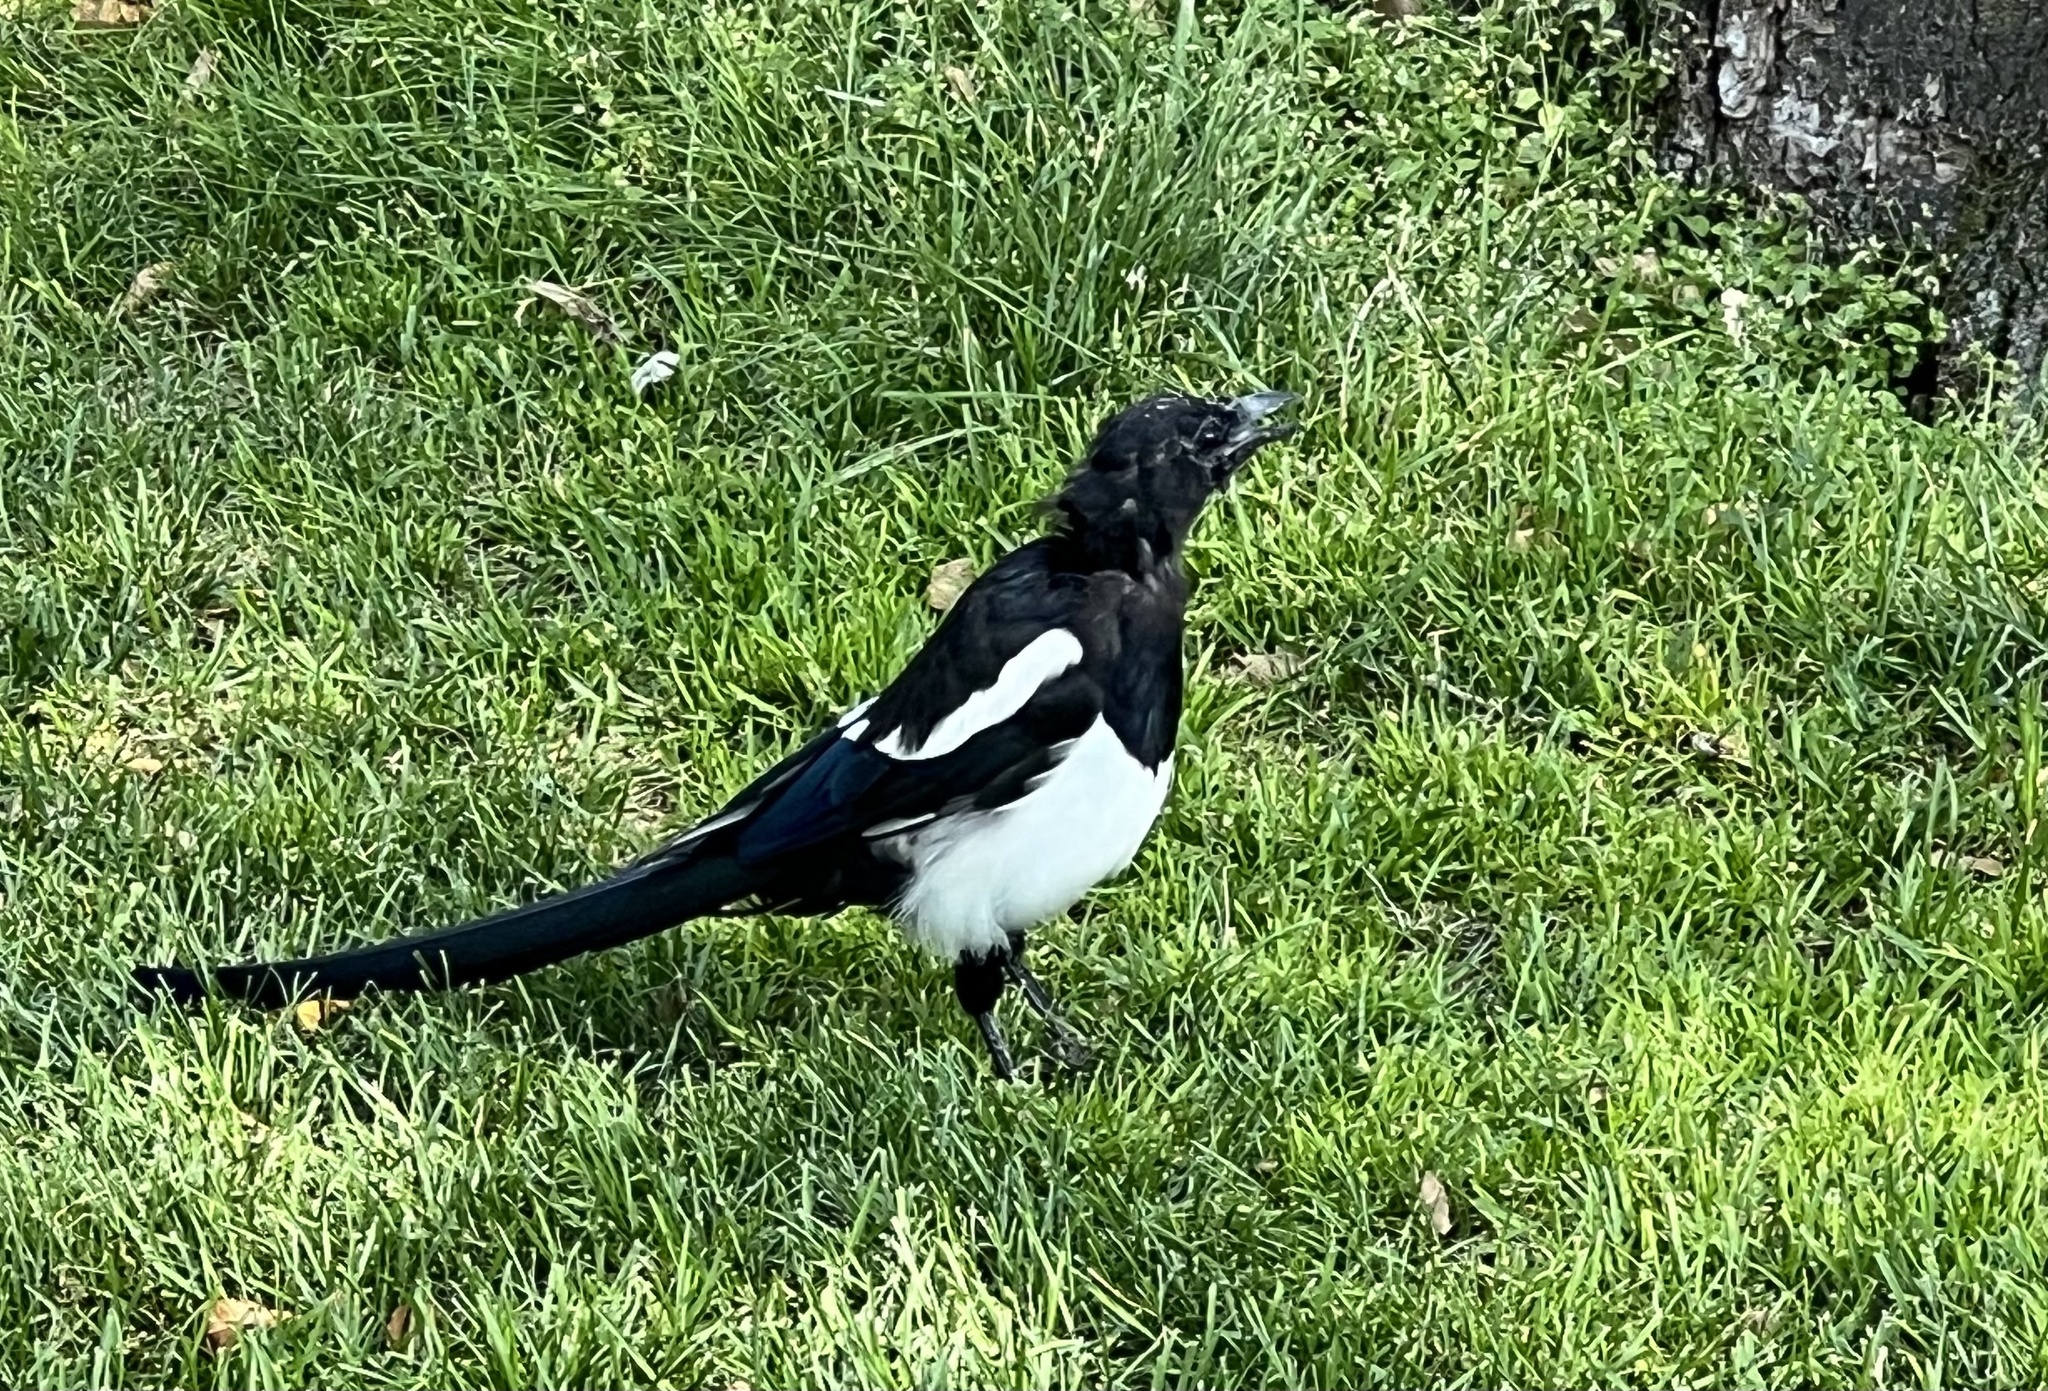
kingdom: Animalia
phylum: Chordata
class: Aves
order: Passeriformes
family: Corvidae
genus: Pica
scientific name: Pica hudsonia
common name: Black-billed magpie
